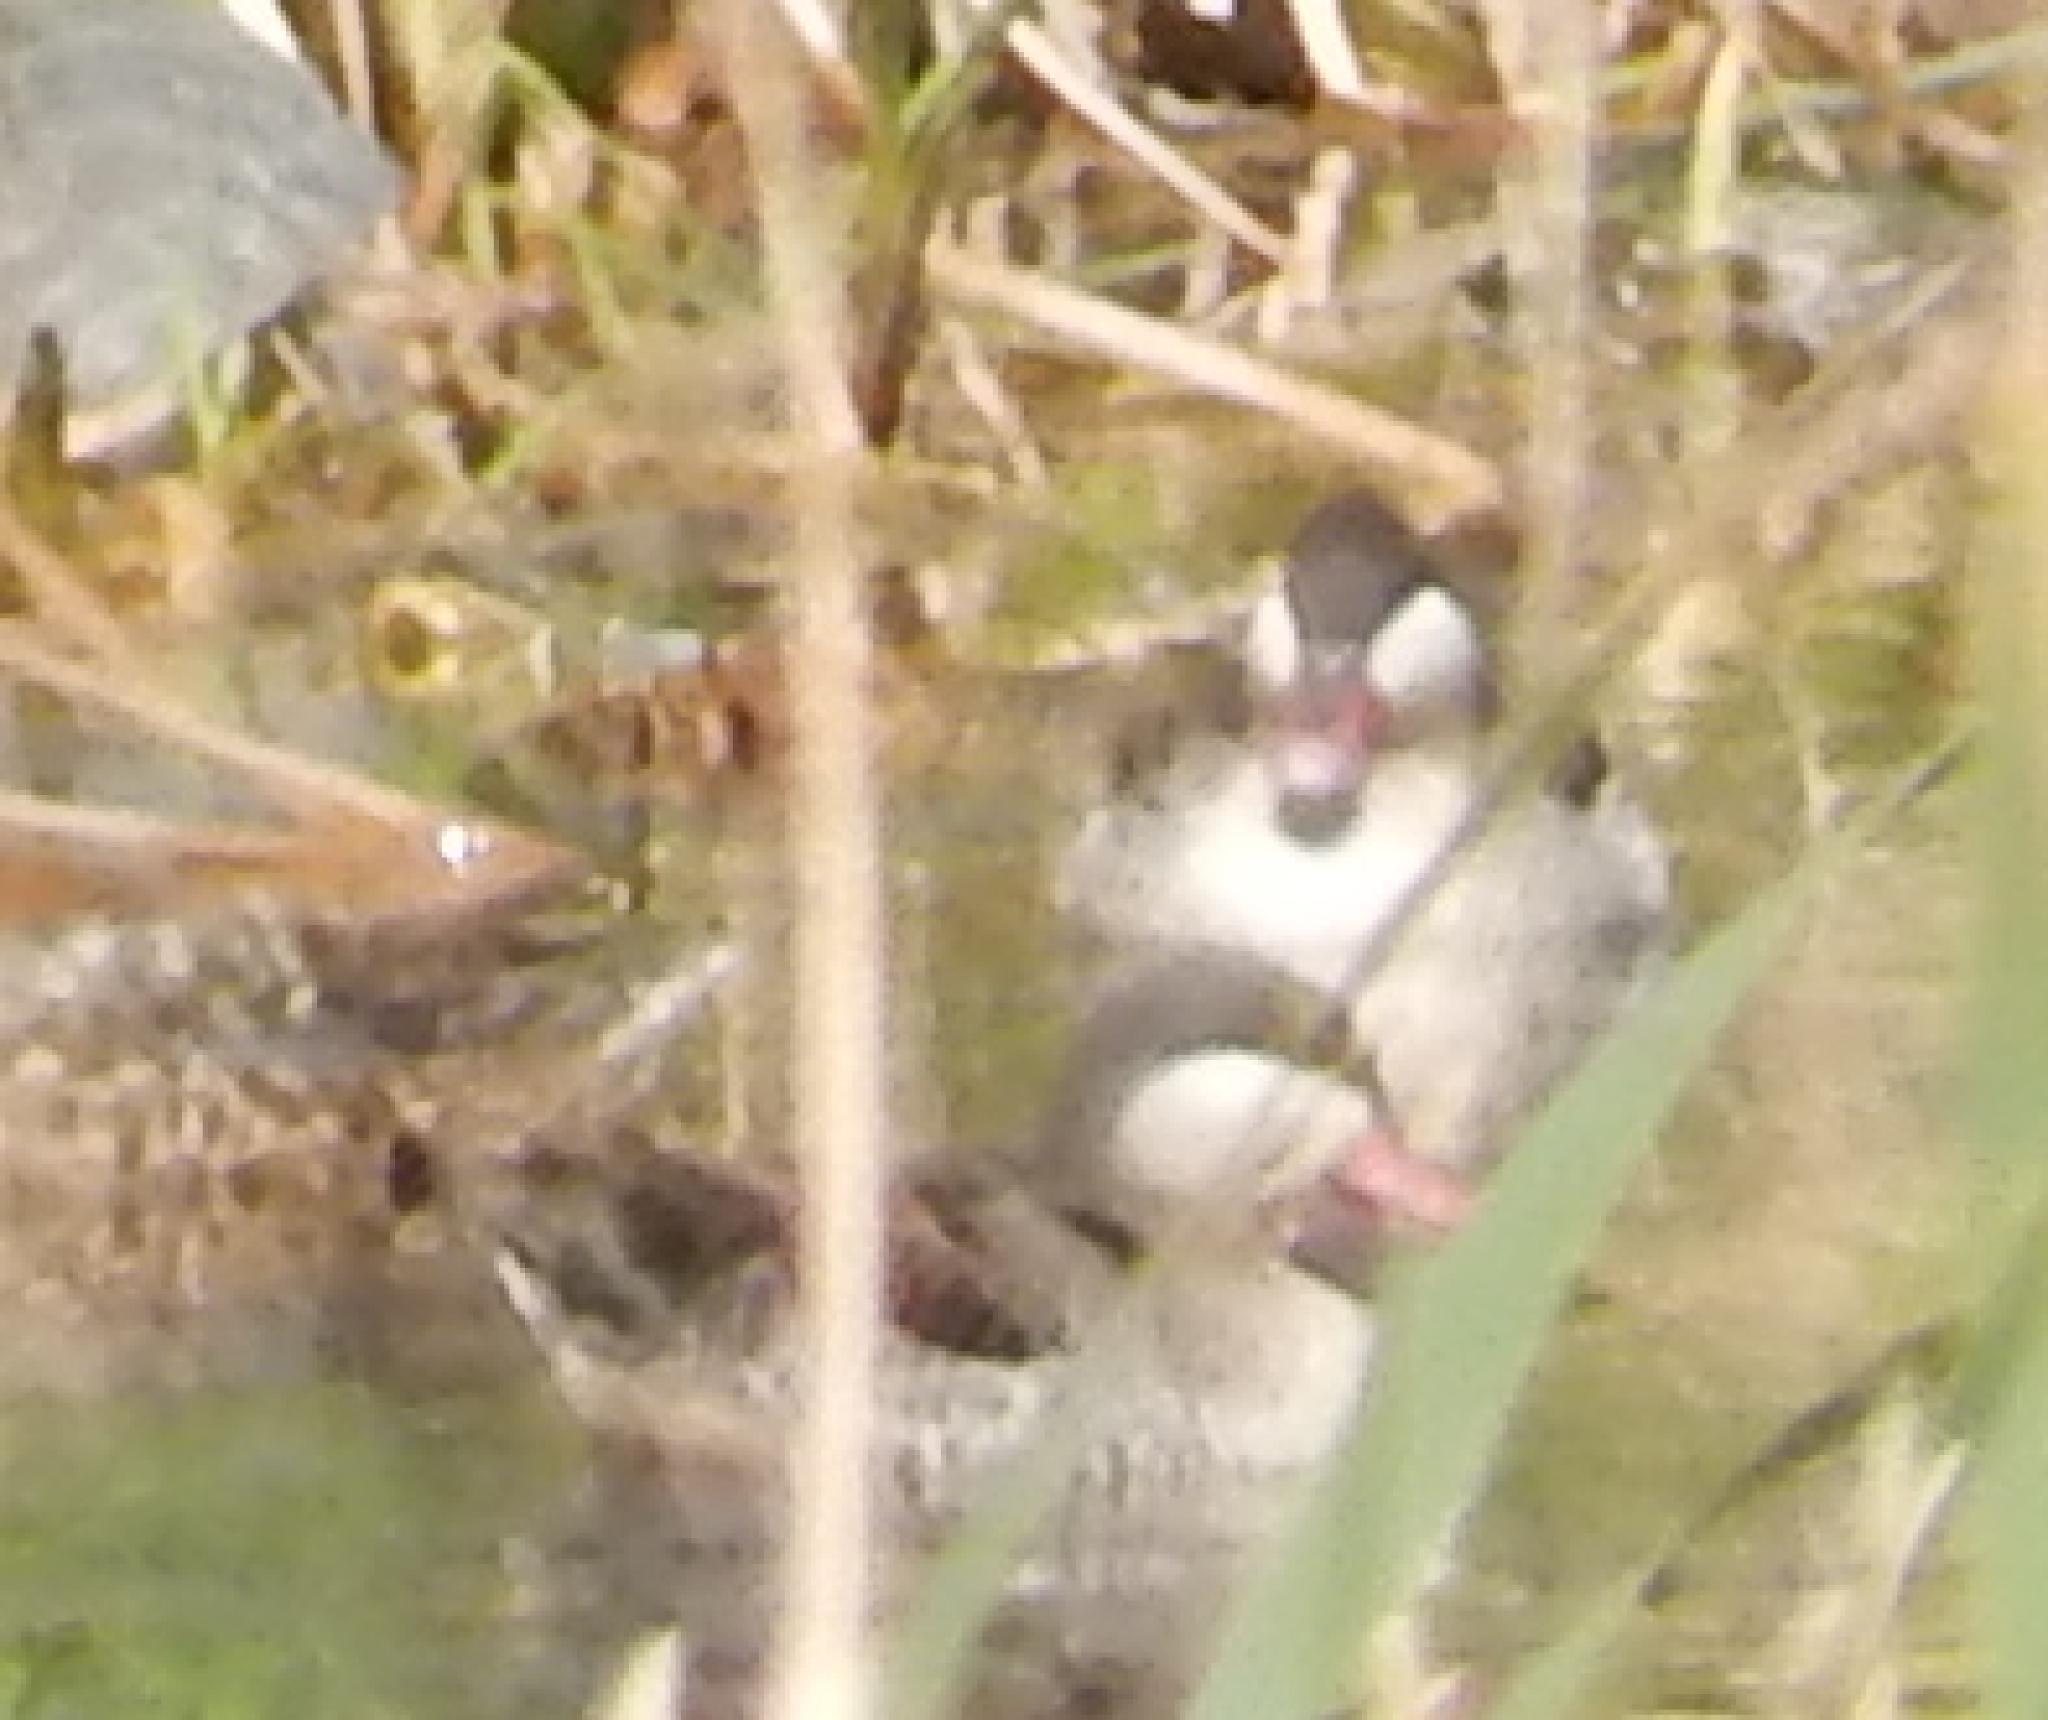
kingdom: Animalia
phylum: Chordata
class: Aves
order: Anseriformes
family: Anatidae
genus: Anas
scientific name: Anas erythrorhyncha
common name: Red-billed teal
